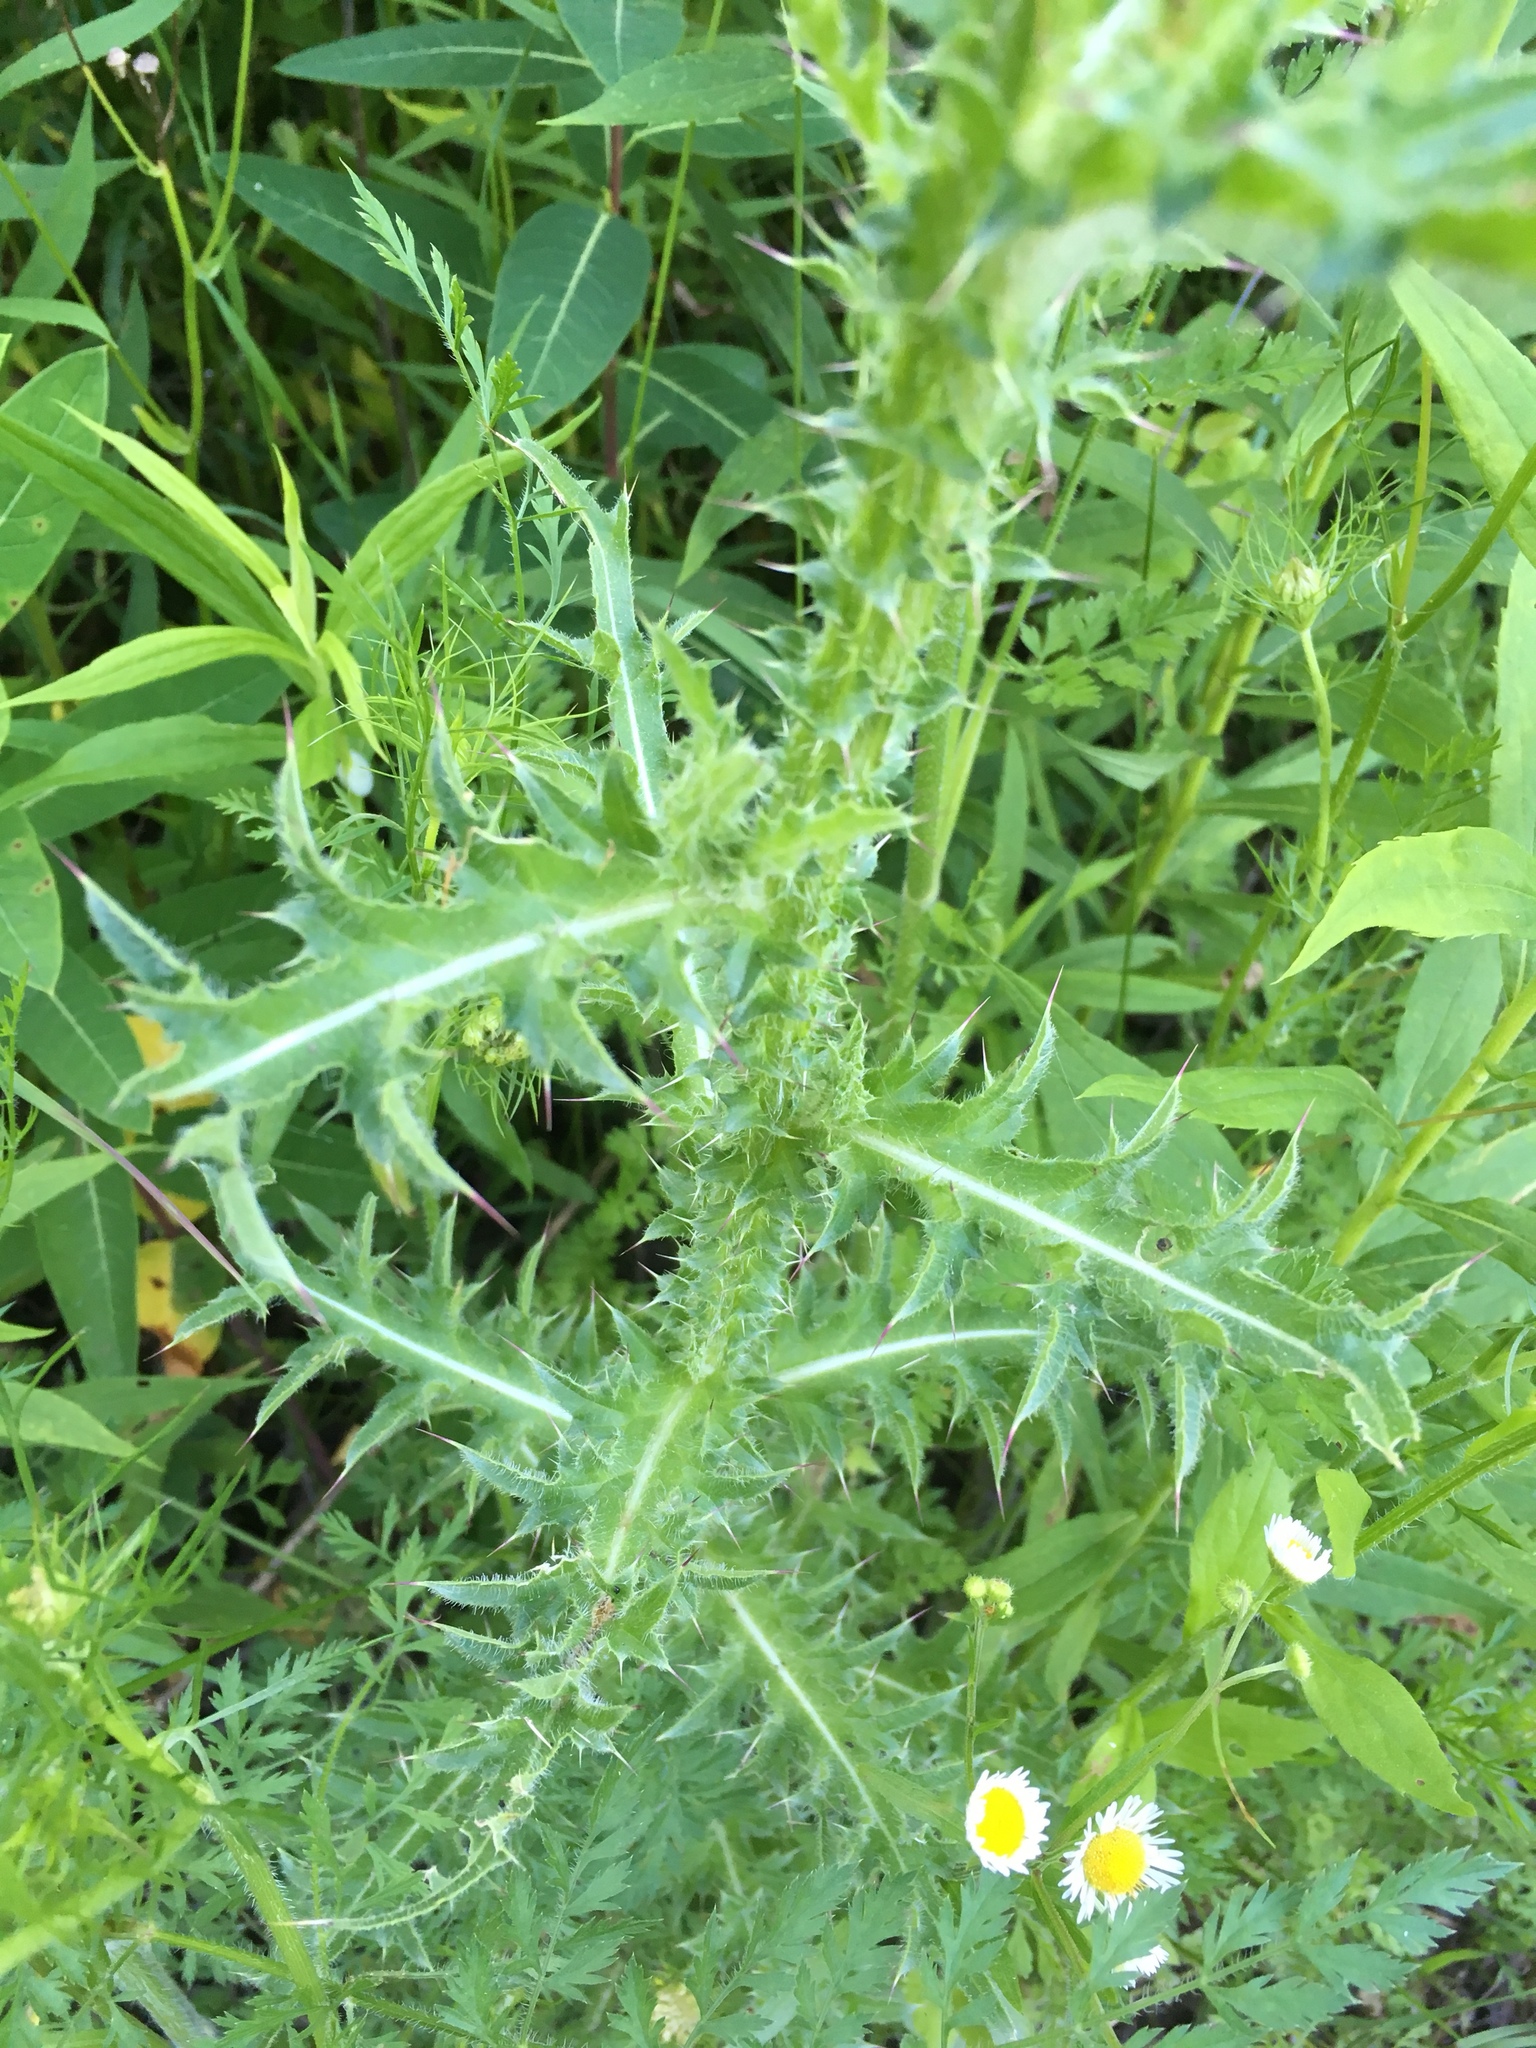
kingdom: Plantae
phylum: Tracheophyta
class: Magnoliopsida
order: Asterales
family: Asteraceae
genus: Carduus
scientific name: Carduus nutans
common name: Musk thistle
